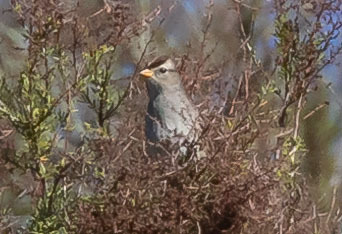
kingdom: Animalia
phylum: Chordata
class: Aves
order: Passeriformes
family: Passerellidae
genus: Zonotrichia
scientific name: Zonotrichia leucophrys
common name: White-crowned sparrow
